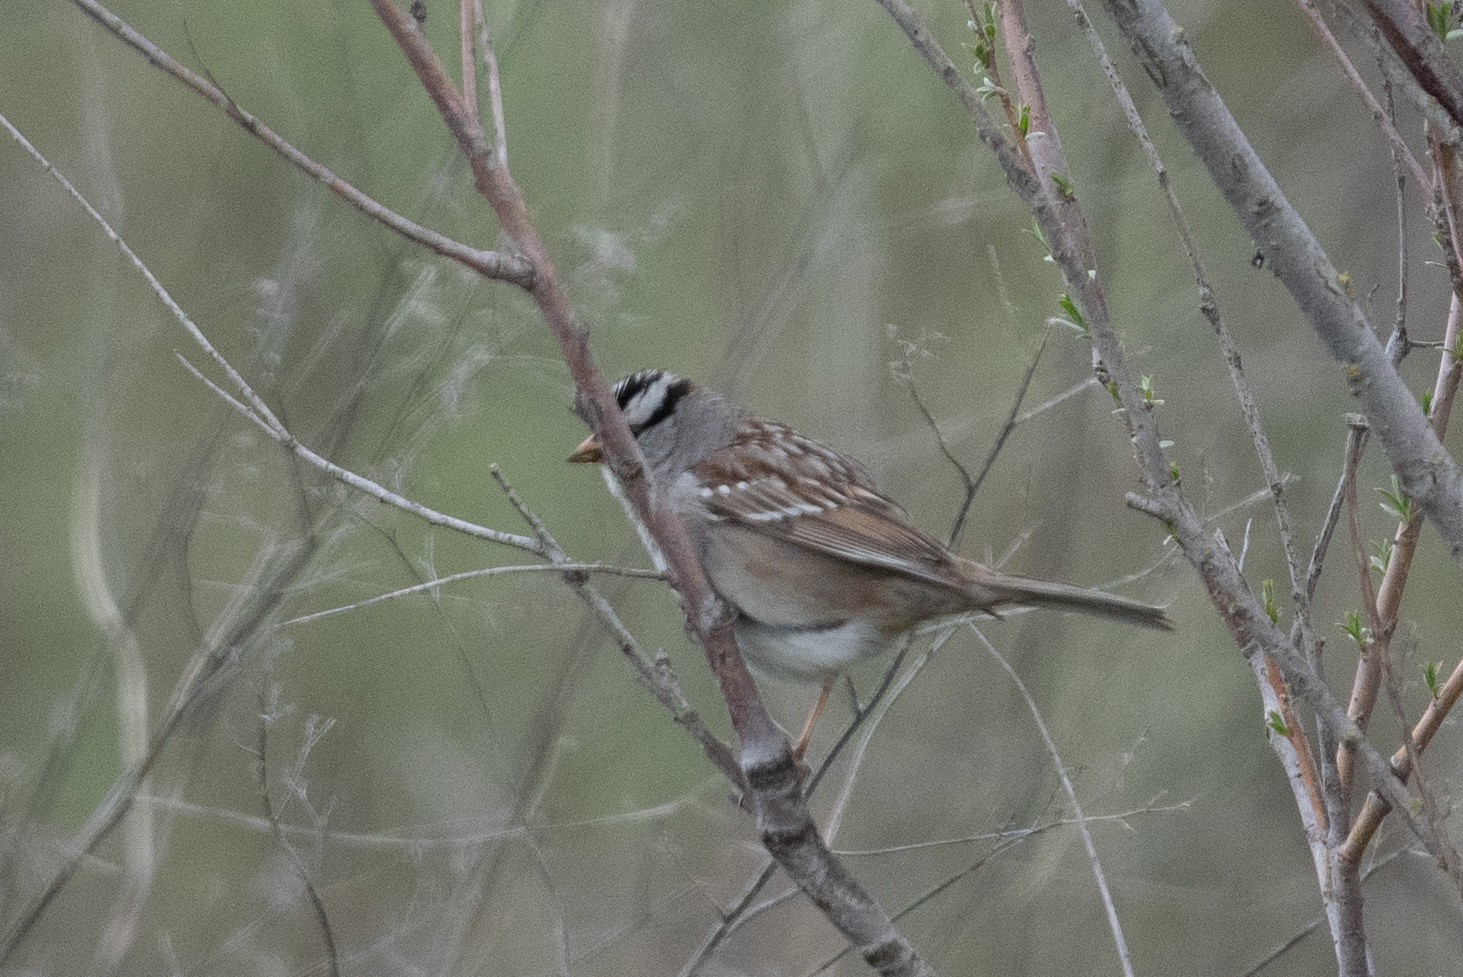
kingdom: Animalia
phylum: Chordata
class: Aves
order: Passeriformes
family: Passerellidae
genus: Zonotrichia
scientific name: Zonotrichia leucophrys
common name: White-crowned sparrow
